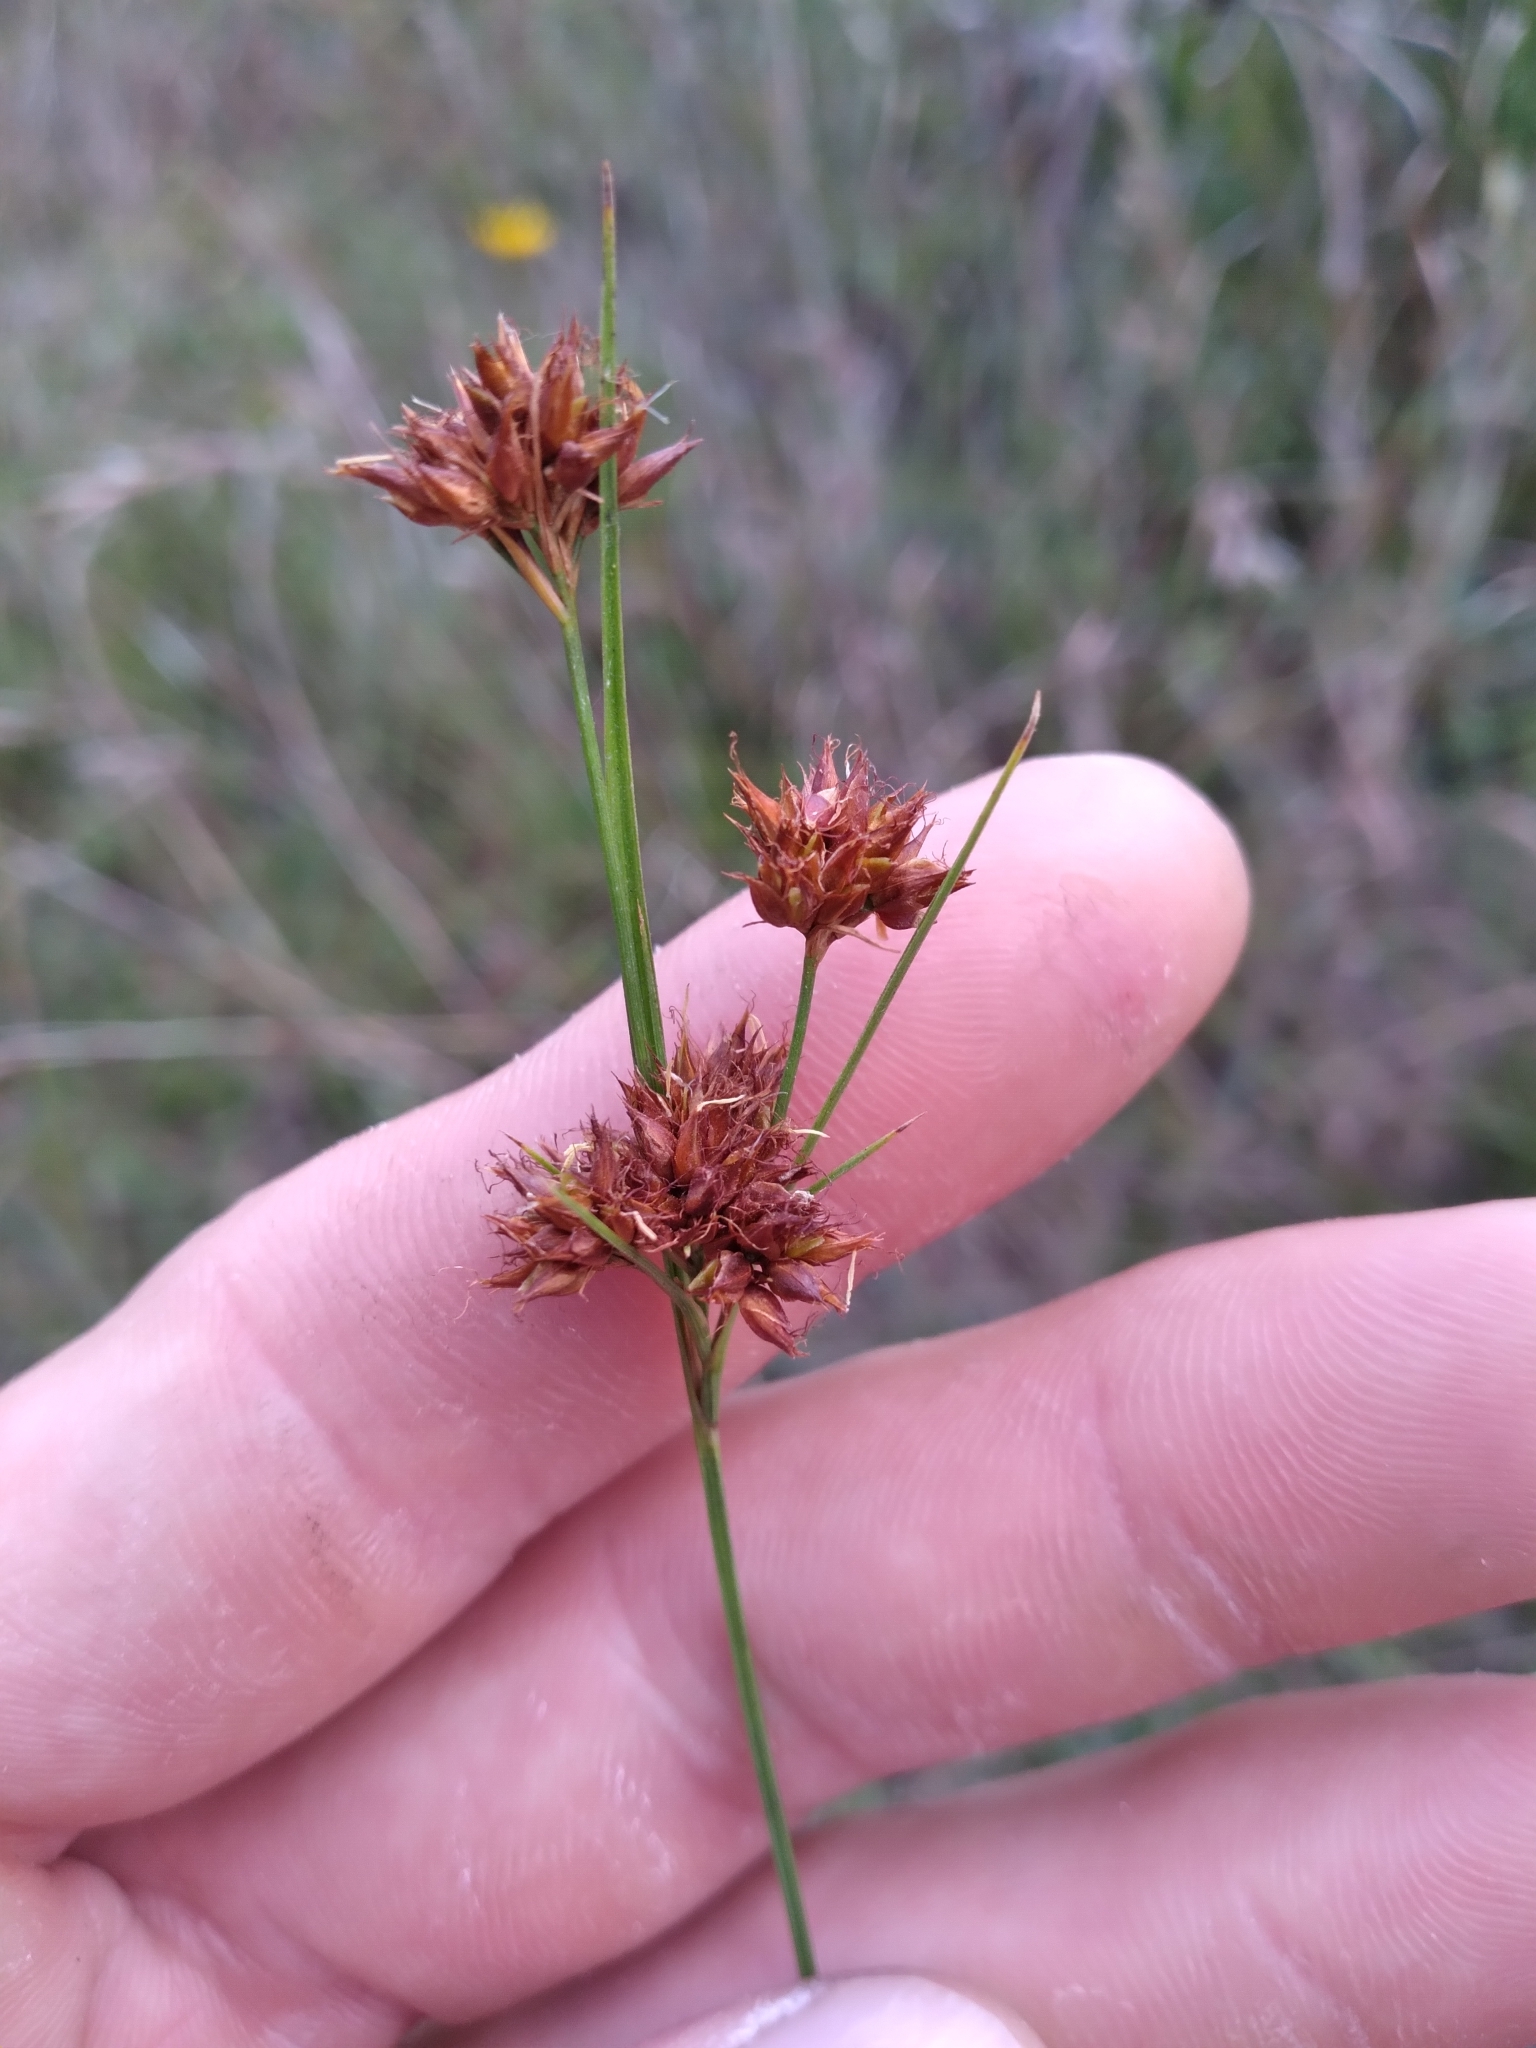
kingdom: Plantae
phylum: Tracheophyta
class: Liliopsida
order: Poales
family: Cyperaceae
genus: Rhynchospora
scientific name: Rhynchospora fascicularis
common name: Fascicled beak sedge
